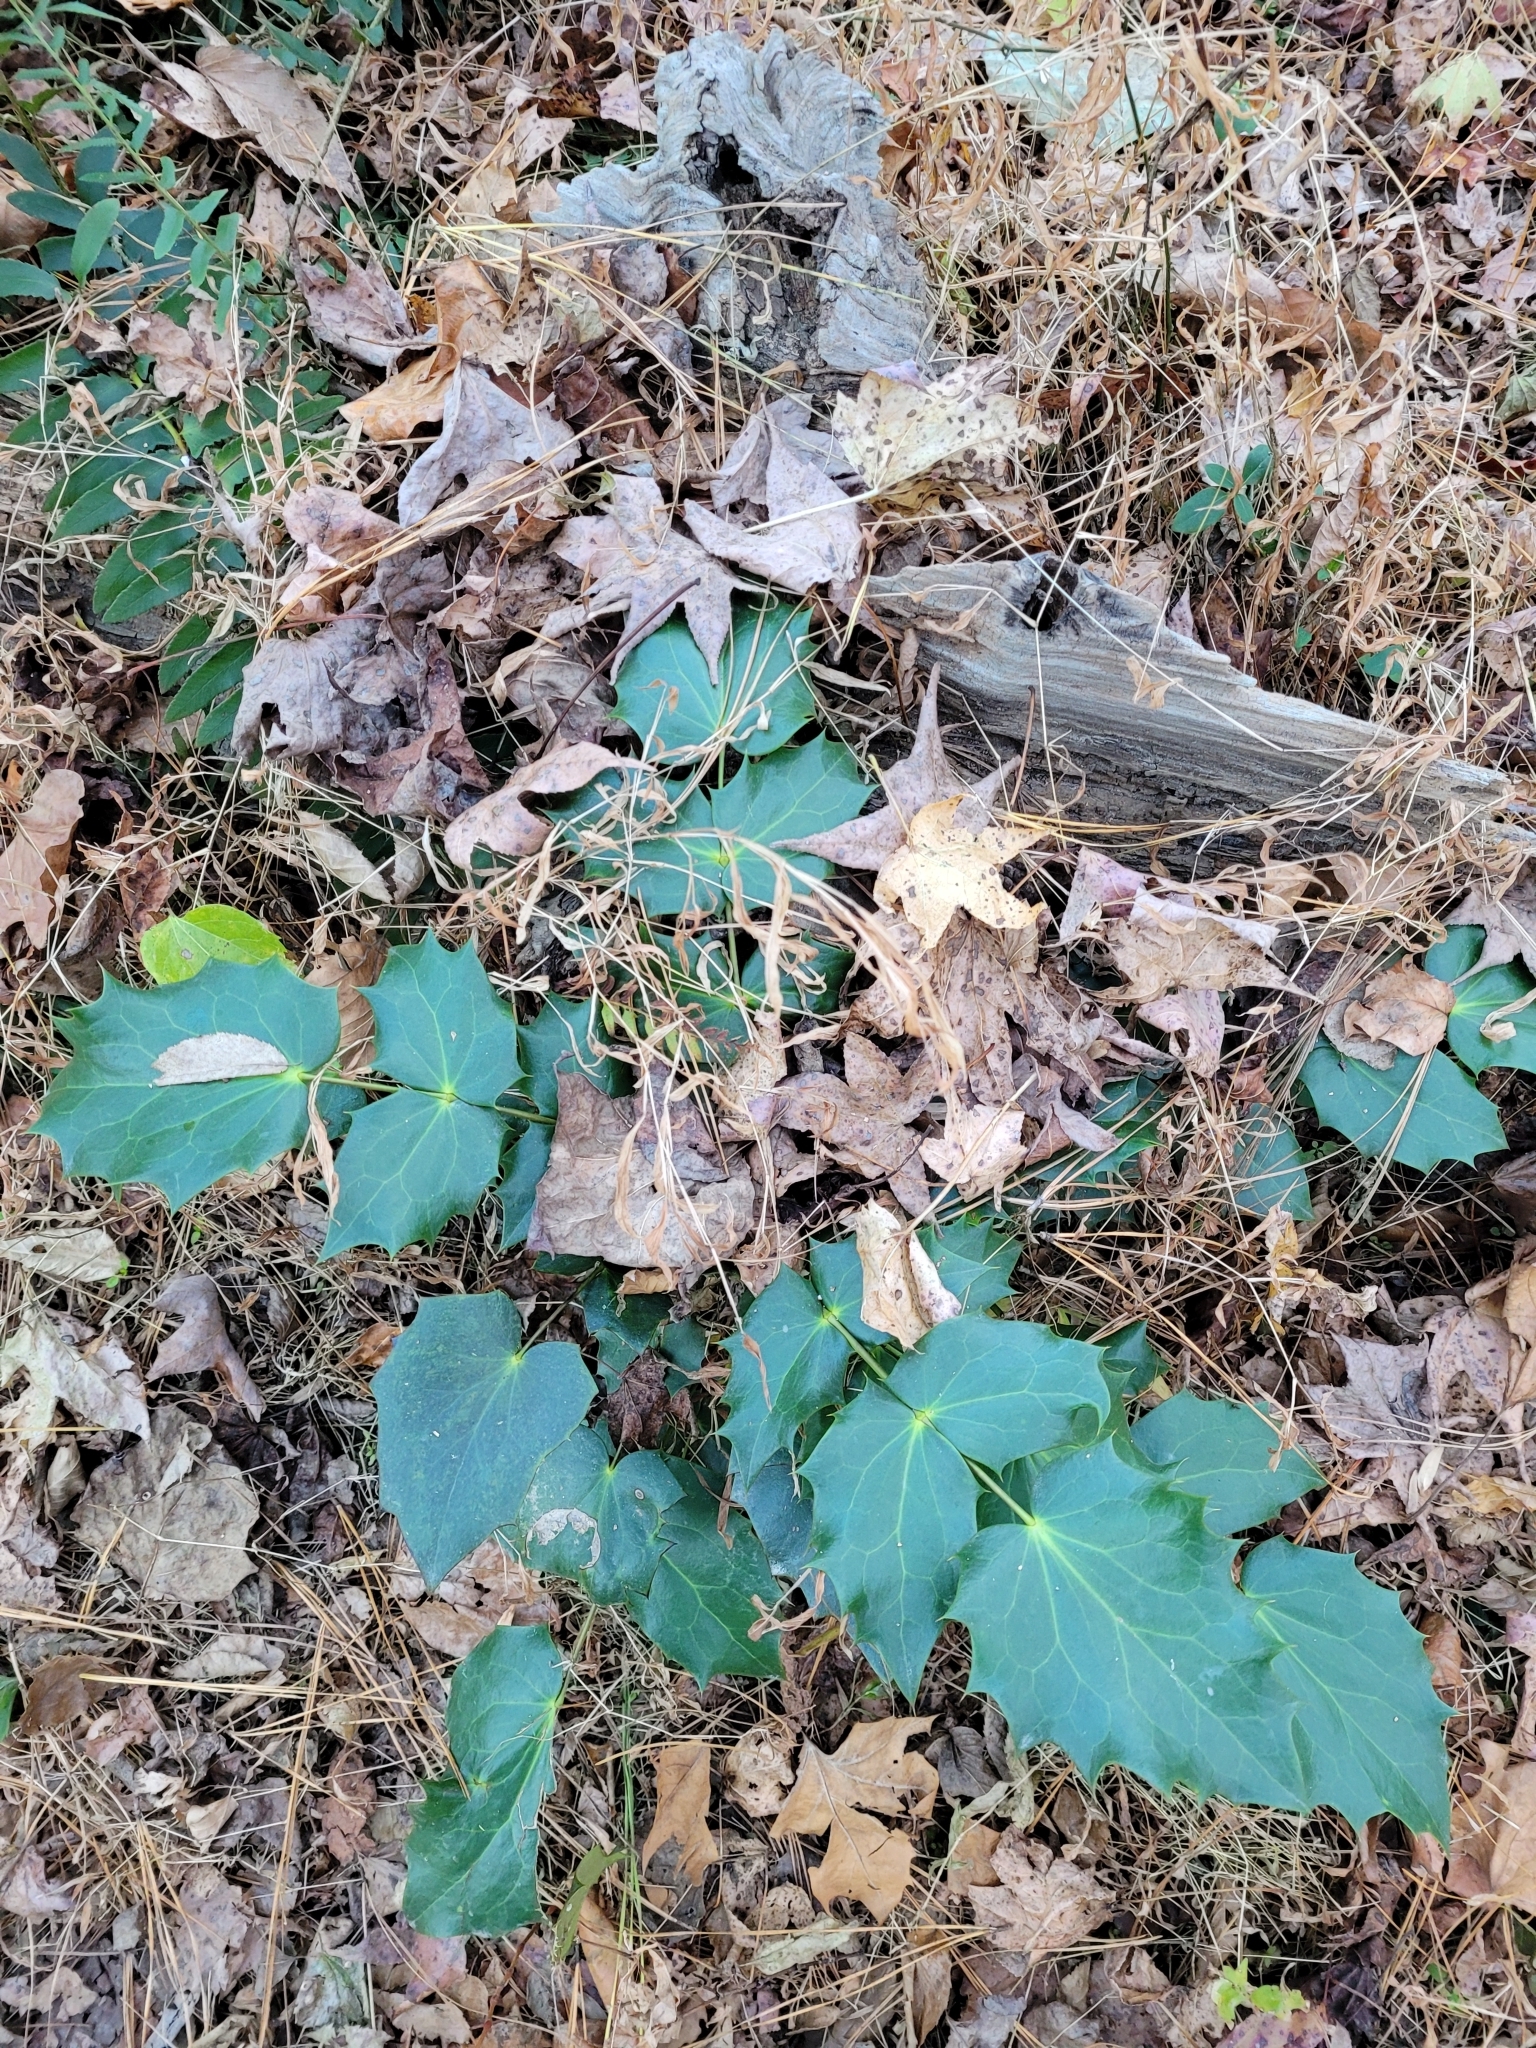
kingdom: Plantae
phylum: Tracheophyta
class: Magnoliopsida
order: Ranunculales
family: Berberidaceae
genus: Mahonia
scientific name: Mahonia bealei
